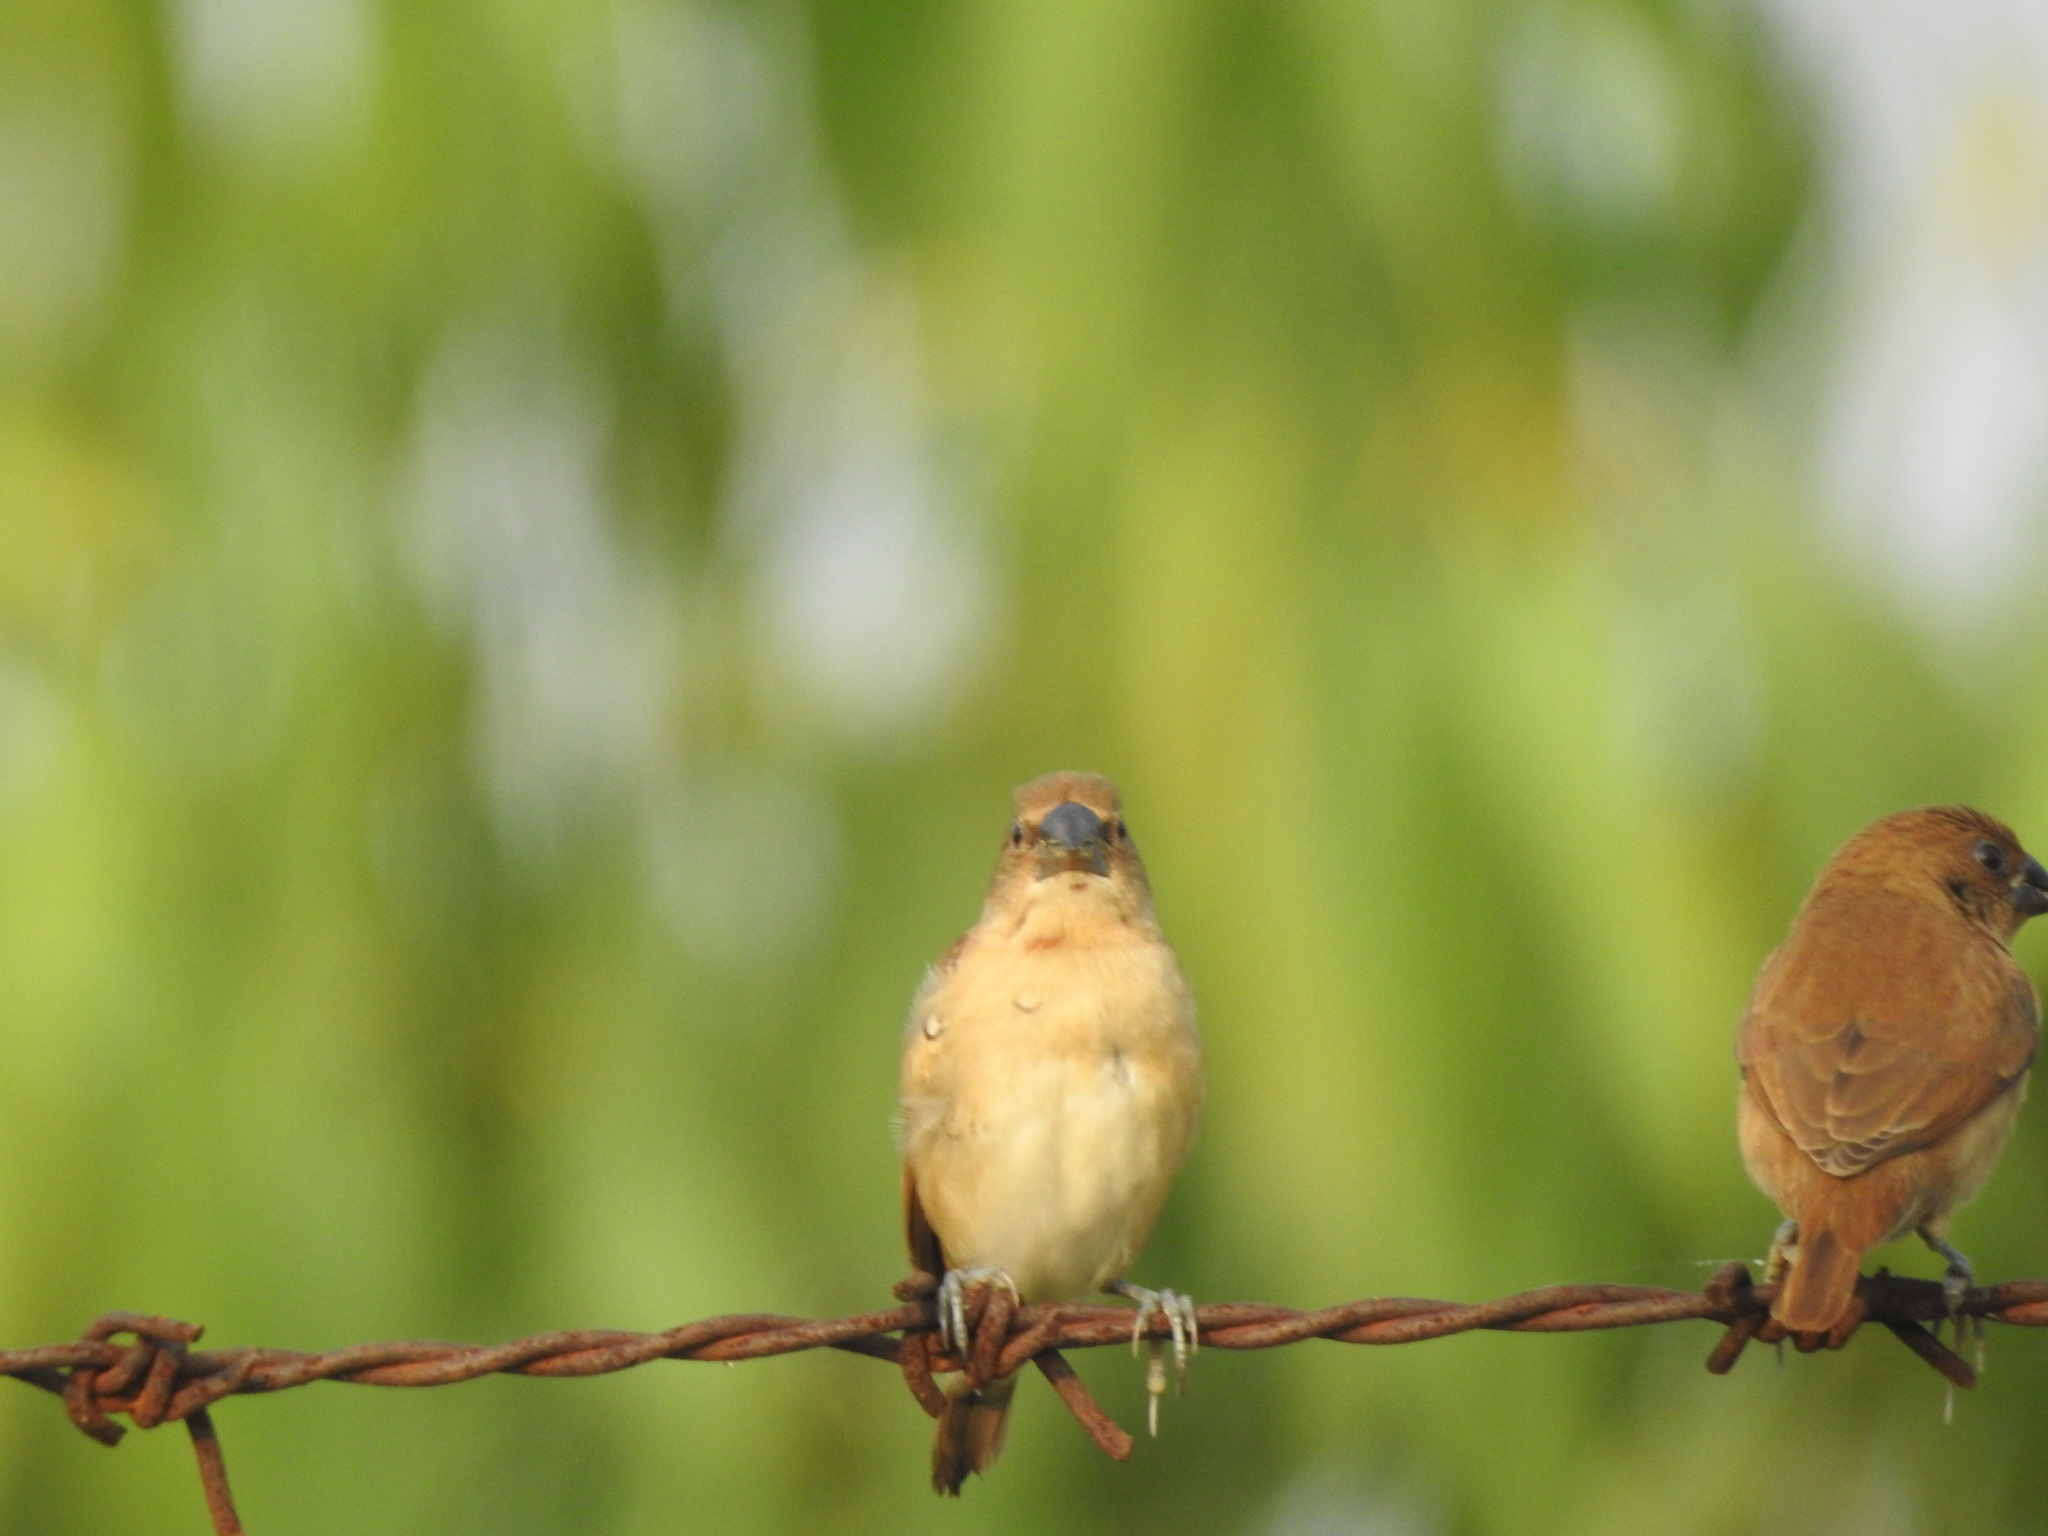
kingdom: Animalia
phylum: Chordata
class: Aves
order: Passeriformes
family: Estrildidae
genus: Lonchura
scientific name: Lonchura punctulata
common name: Scaly-breasted munia
